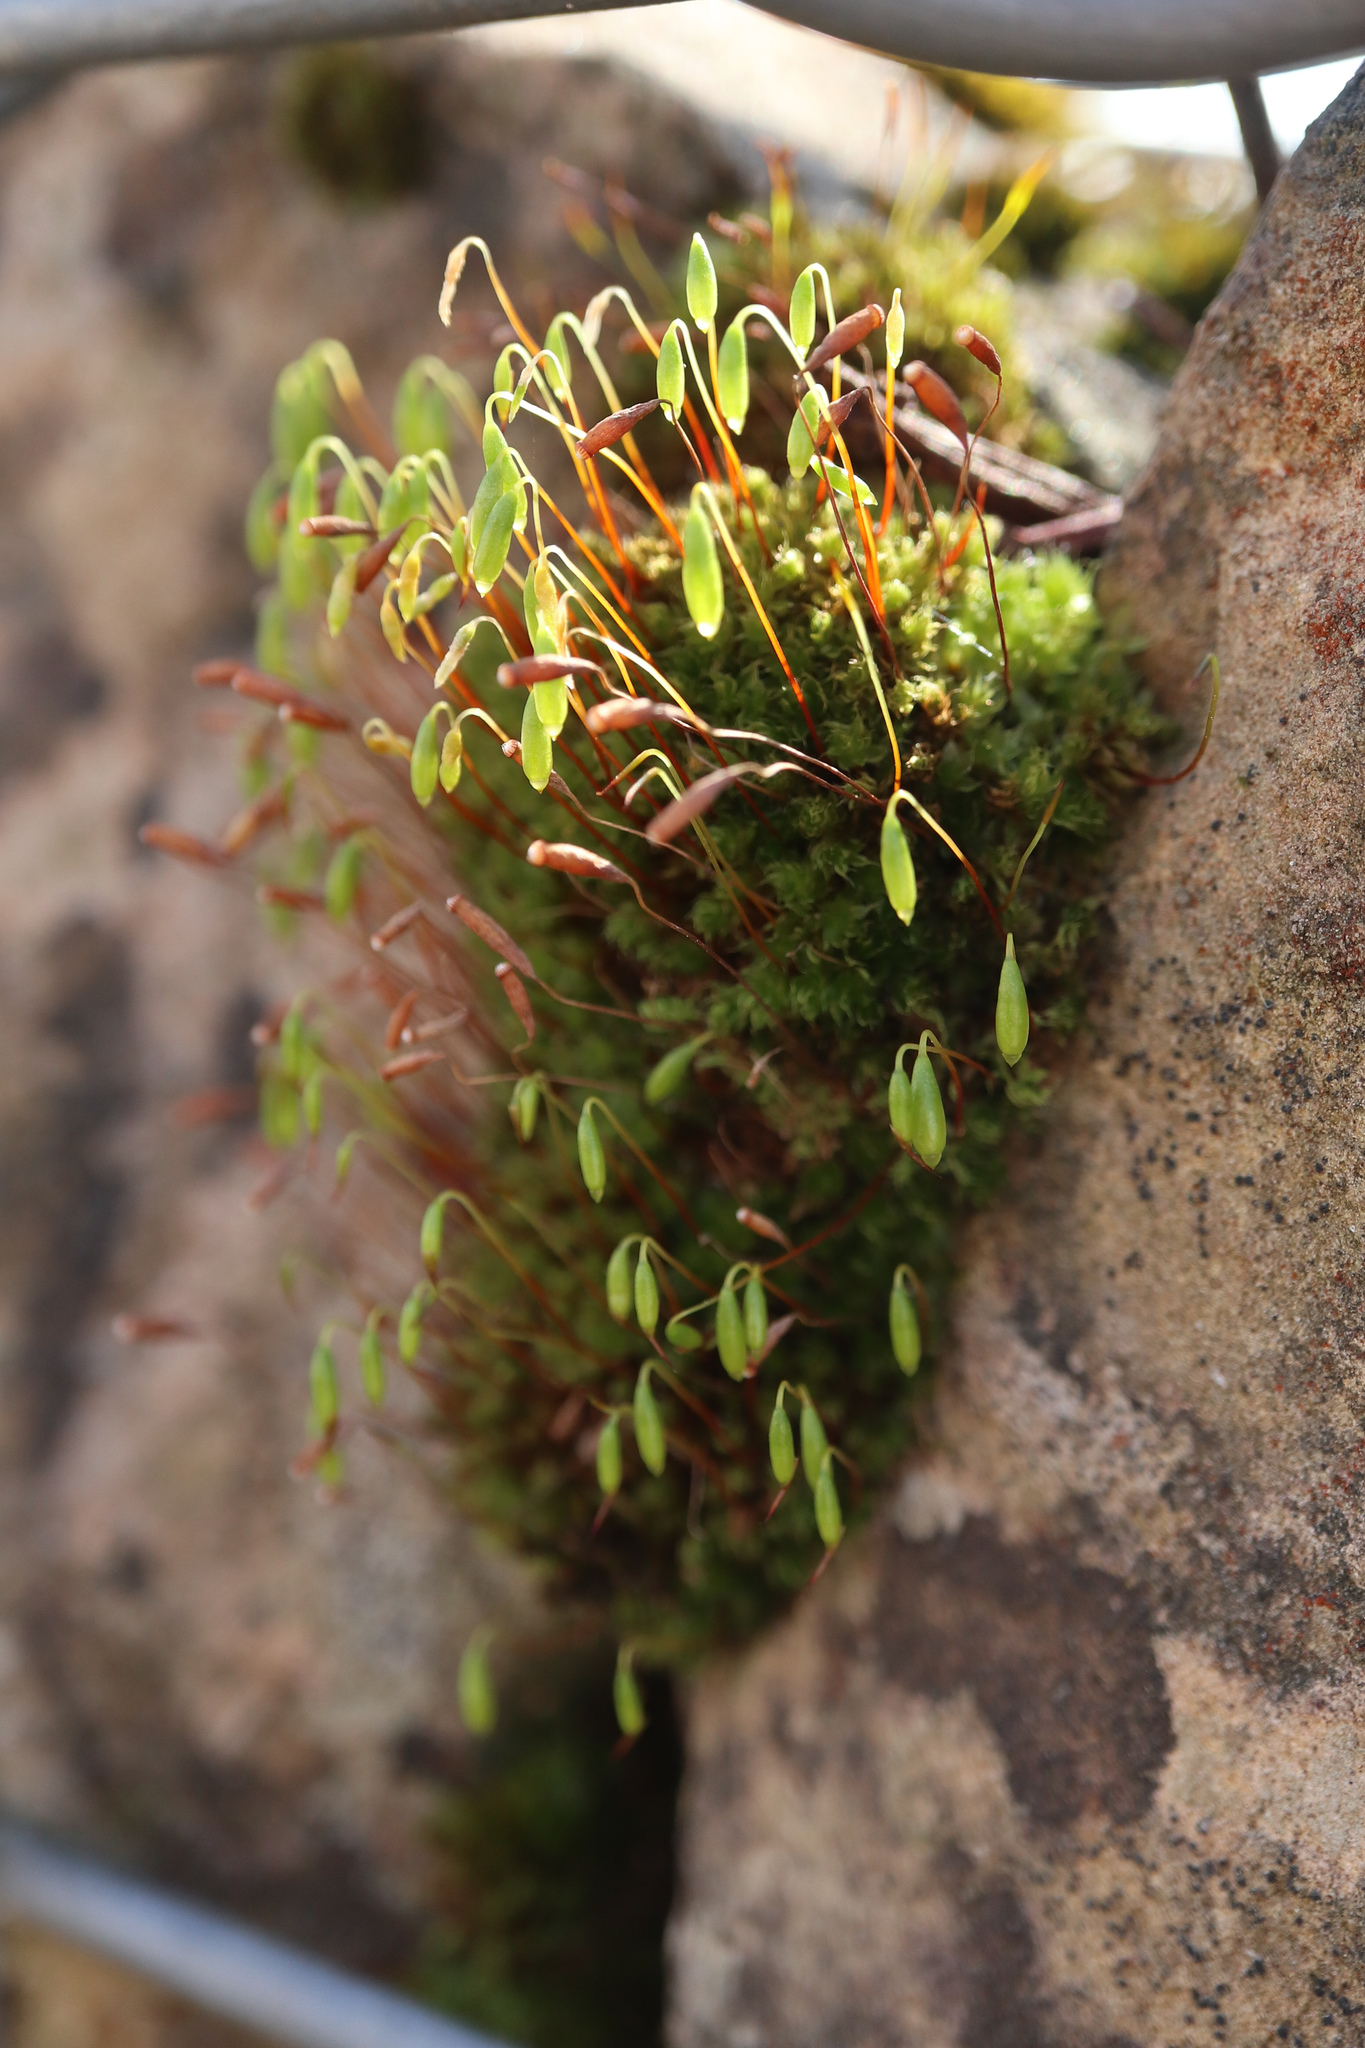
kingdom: Plantae
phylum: Bryophyta
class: Bryopsida
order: Bryales
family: Bryaceae
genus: Rosulabryum
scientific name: Rosulabryum capillare
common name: Capillary thread-moss
